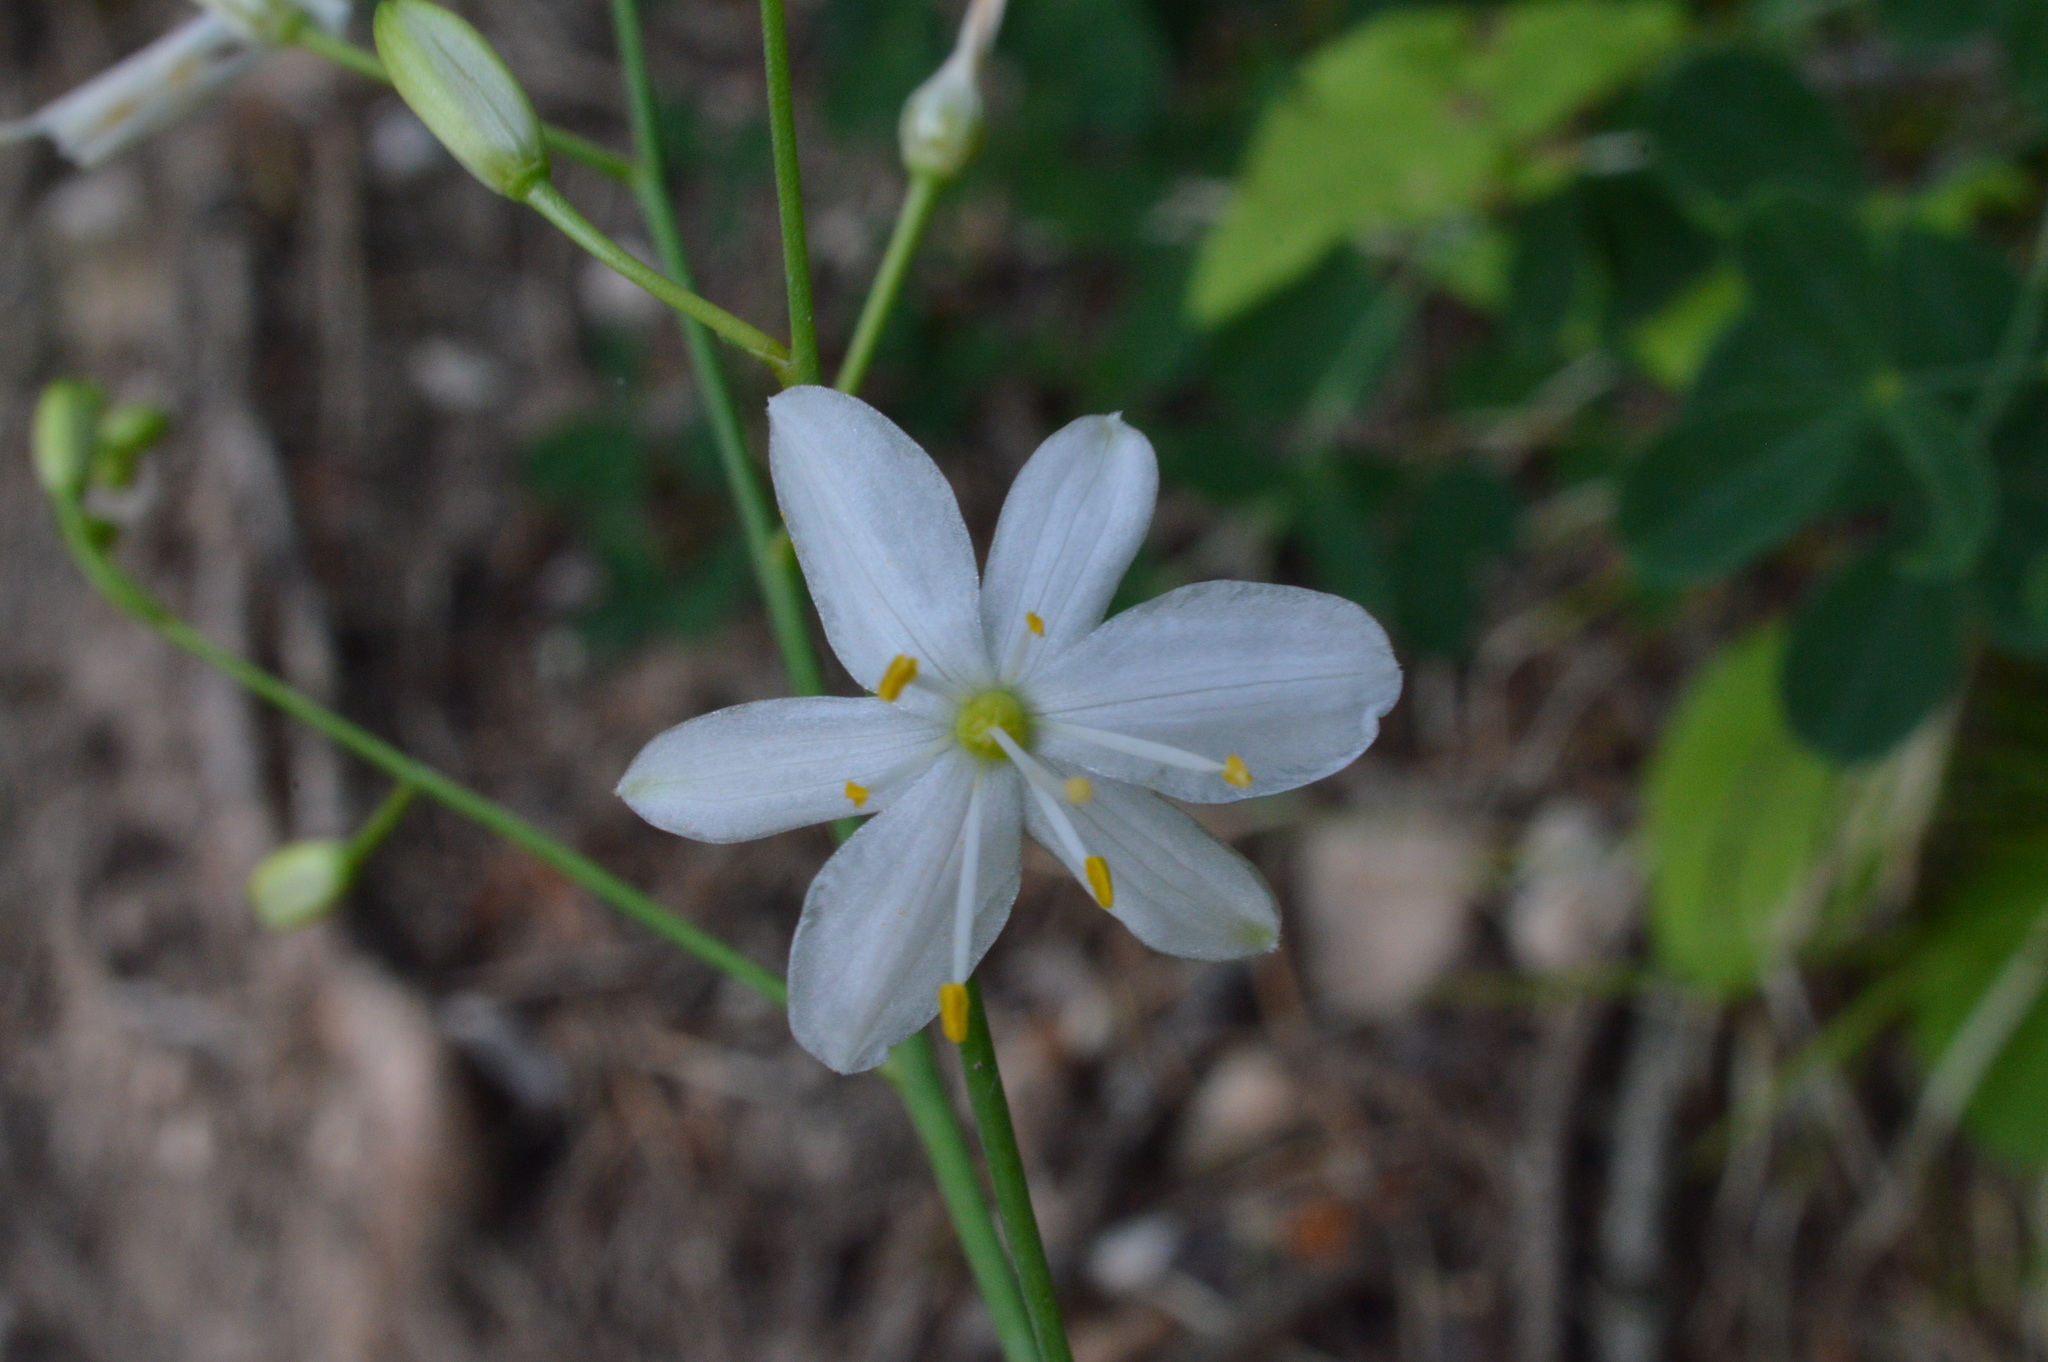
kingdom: Plantae
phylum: Tracheophyta
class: Liliopsida
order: Asparagales
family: Asparagaceae
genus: Anthericum
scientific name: Anthericum ramosum
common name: Branched st. bernard's-lily
